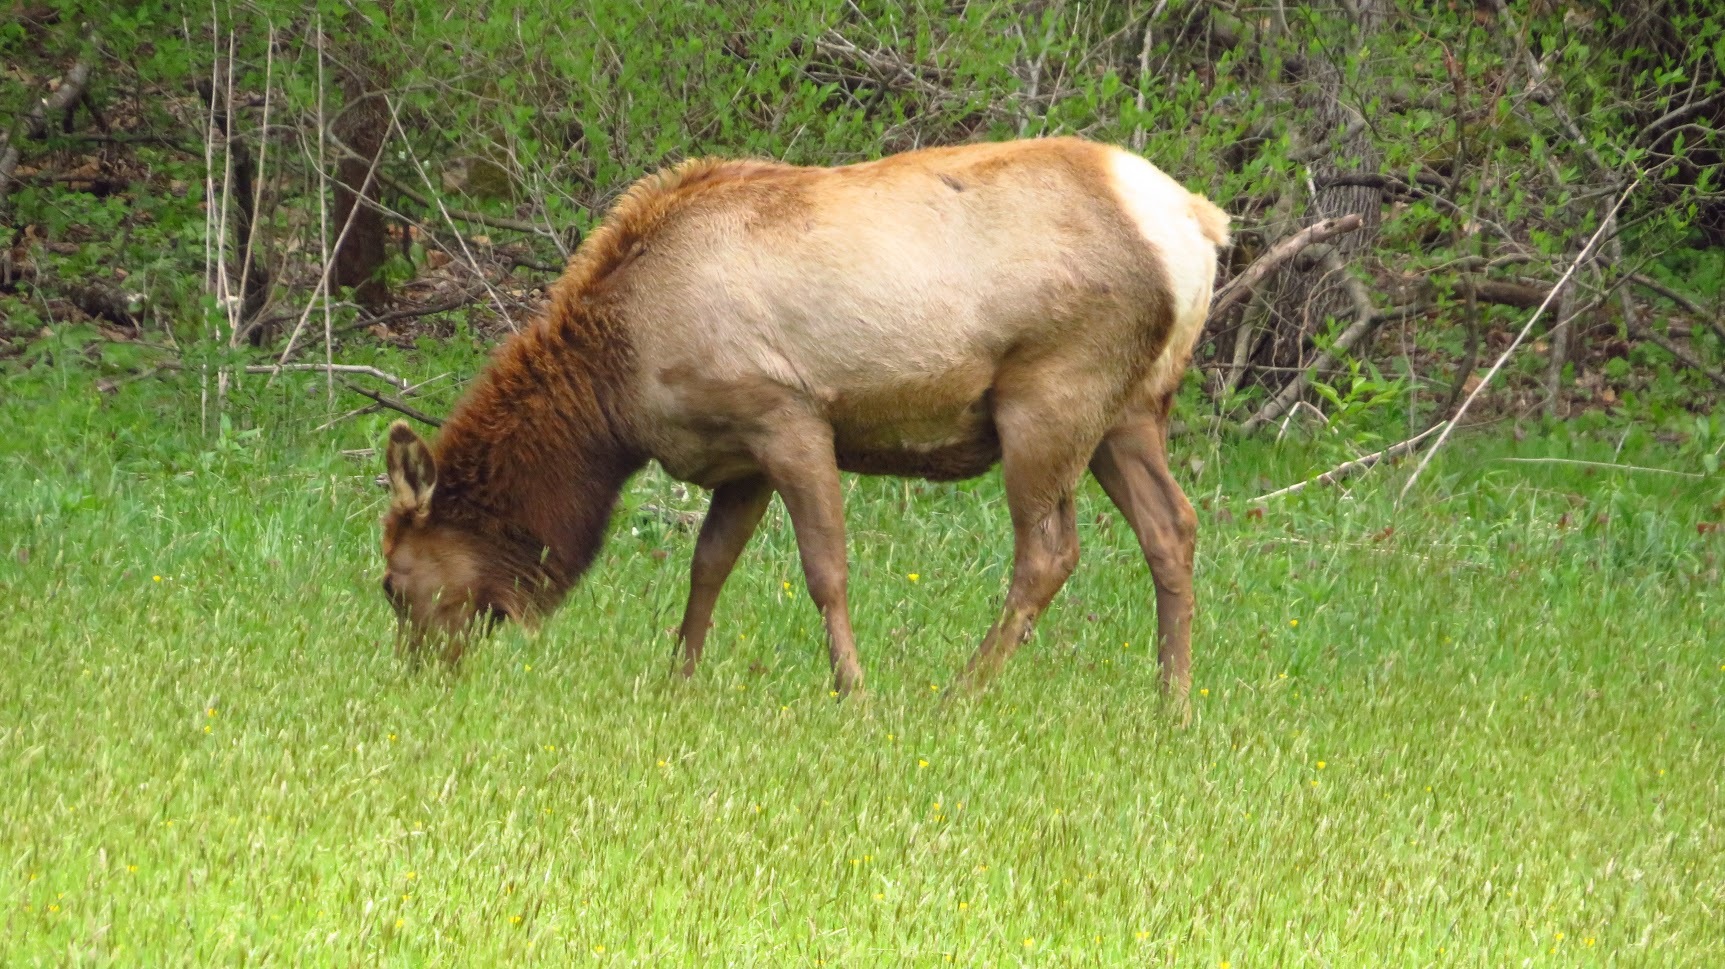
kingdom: Animalia
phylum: Chordata
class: Mammalia
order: Artiodactyla
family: Cervidae
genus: Cervus
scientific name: Cervus elaphus
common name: Red deer
